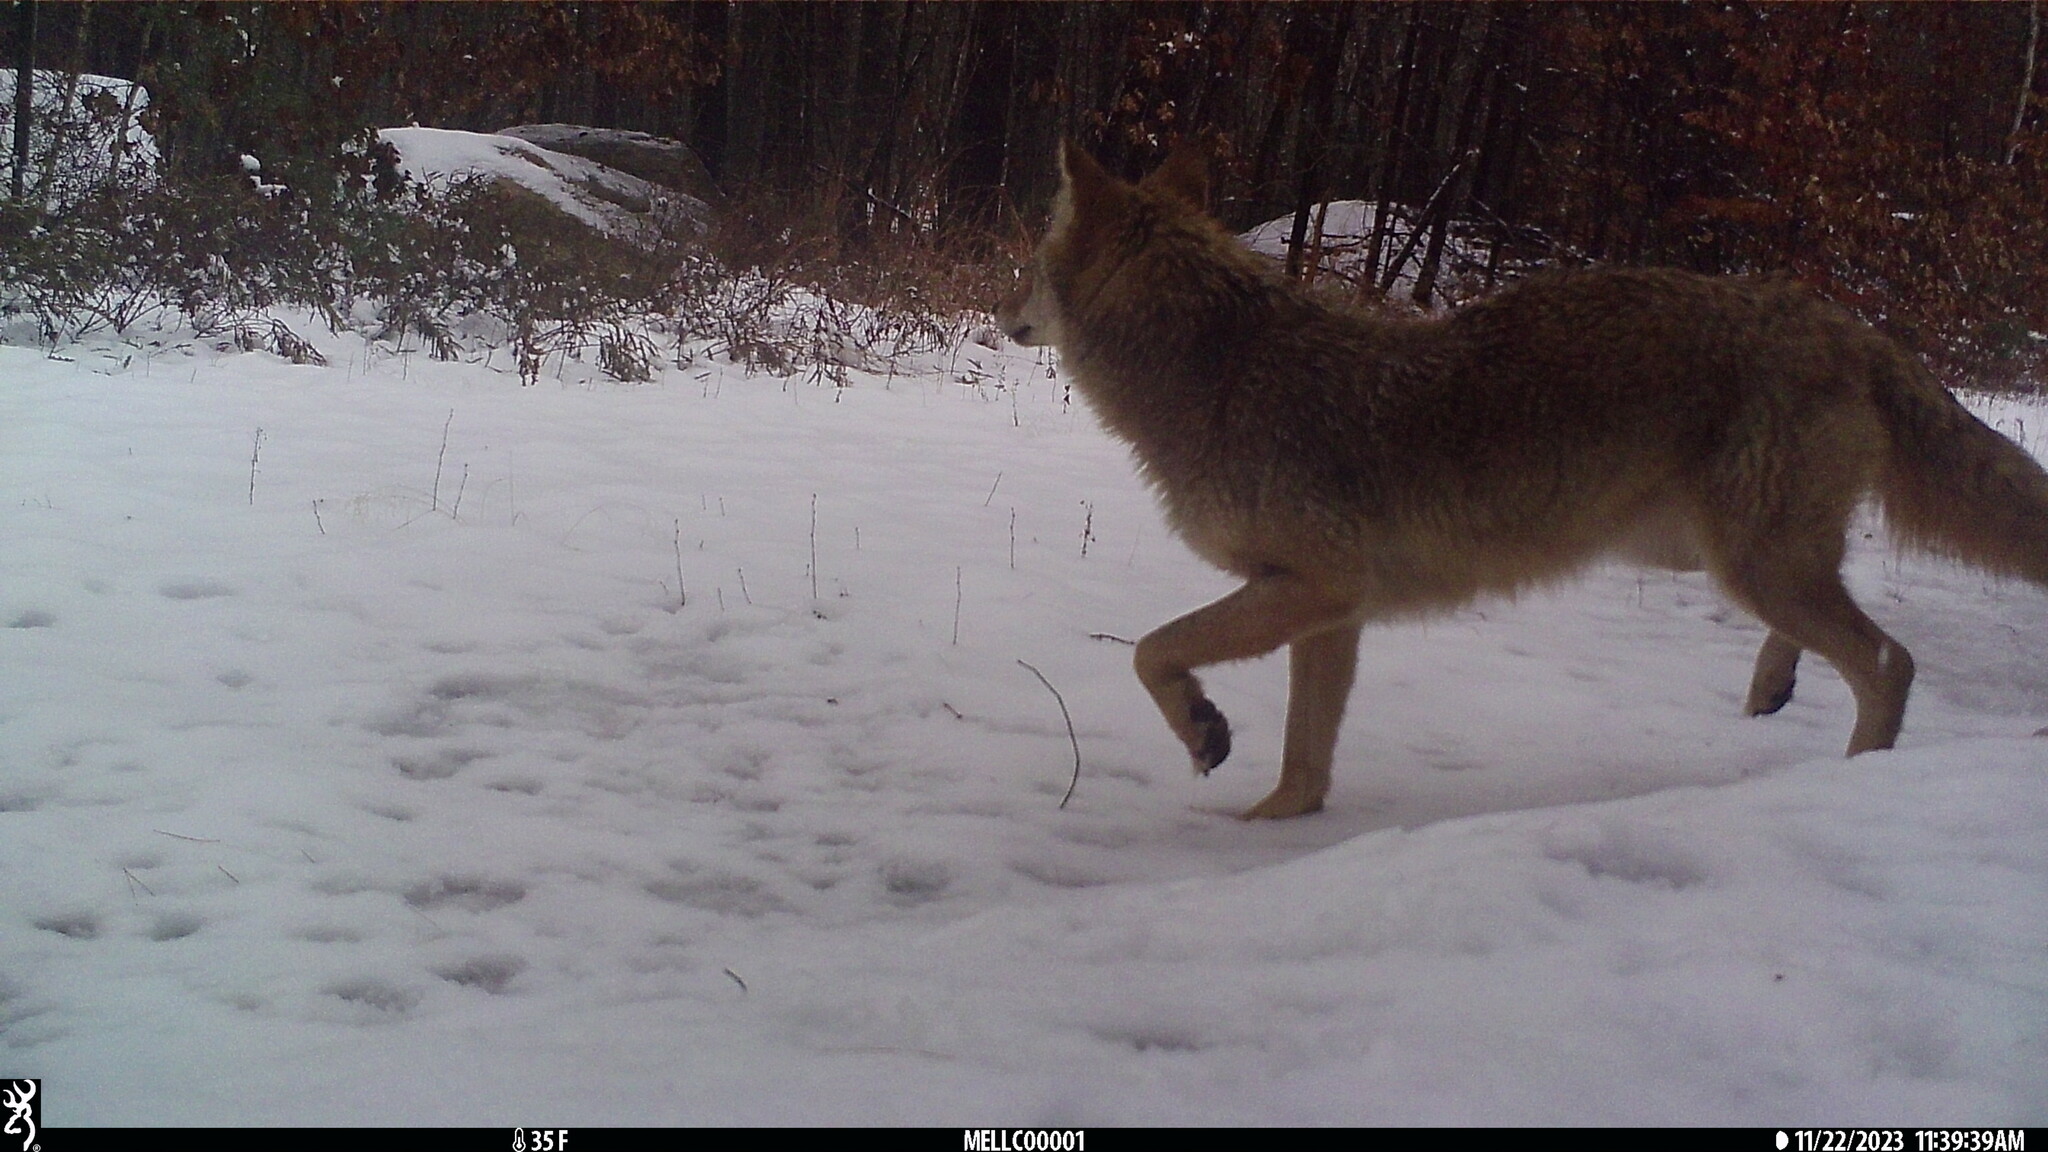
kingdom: Animalia
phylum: Chordata
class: Mammalia
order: Carnivora
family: Canidae
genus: Canis
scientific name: Canis latrans
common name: Coyote
